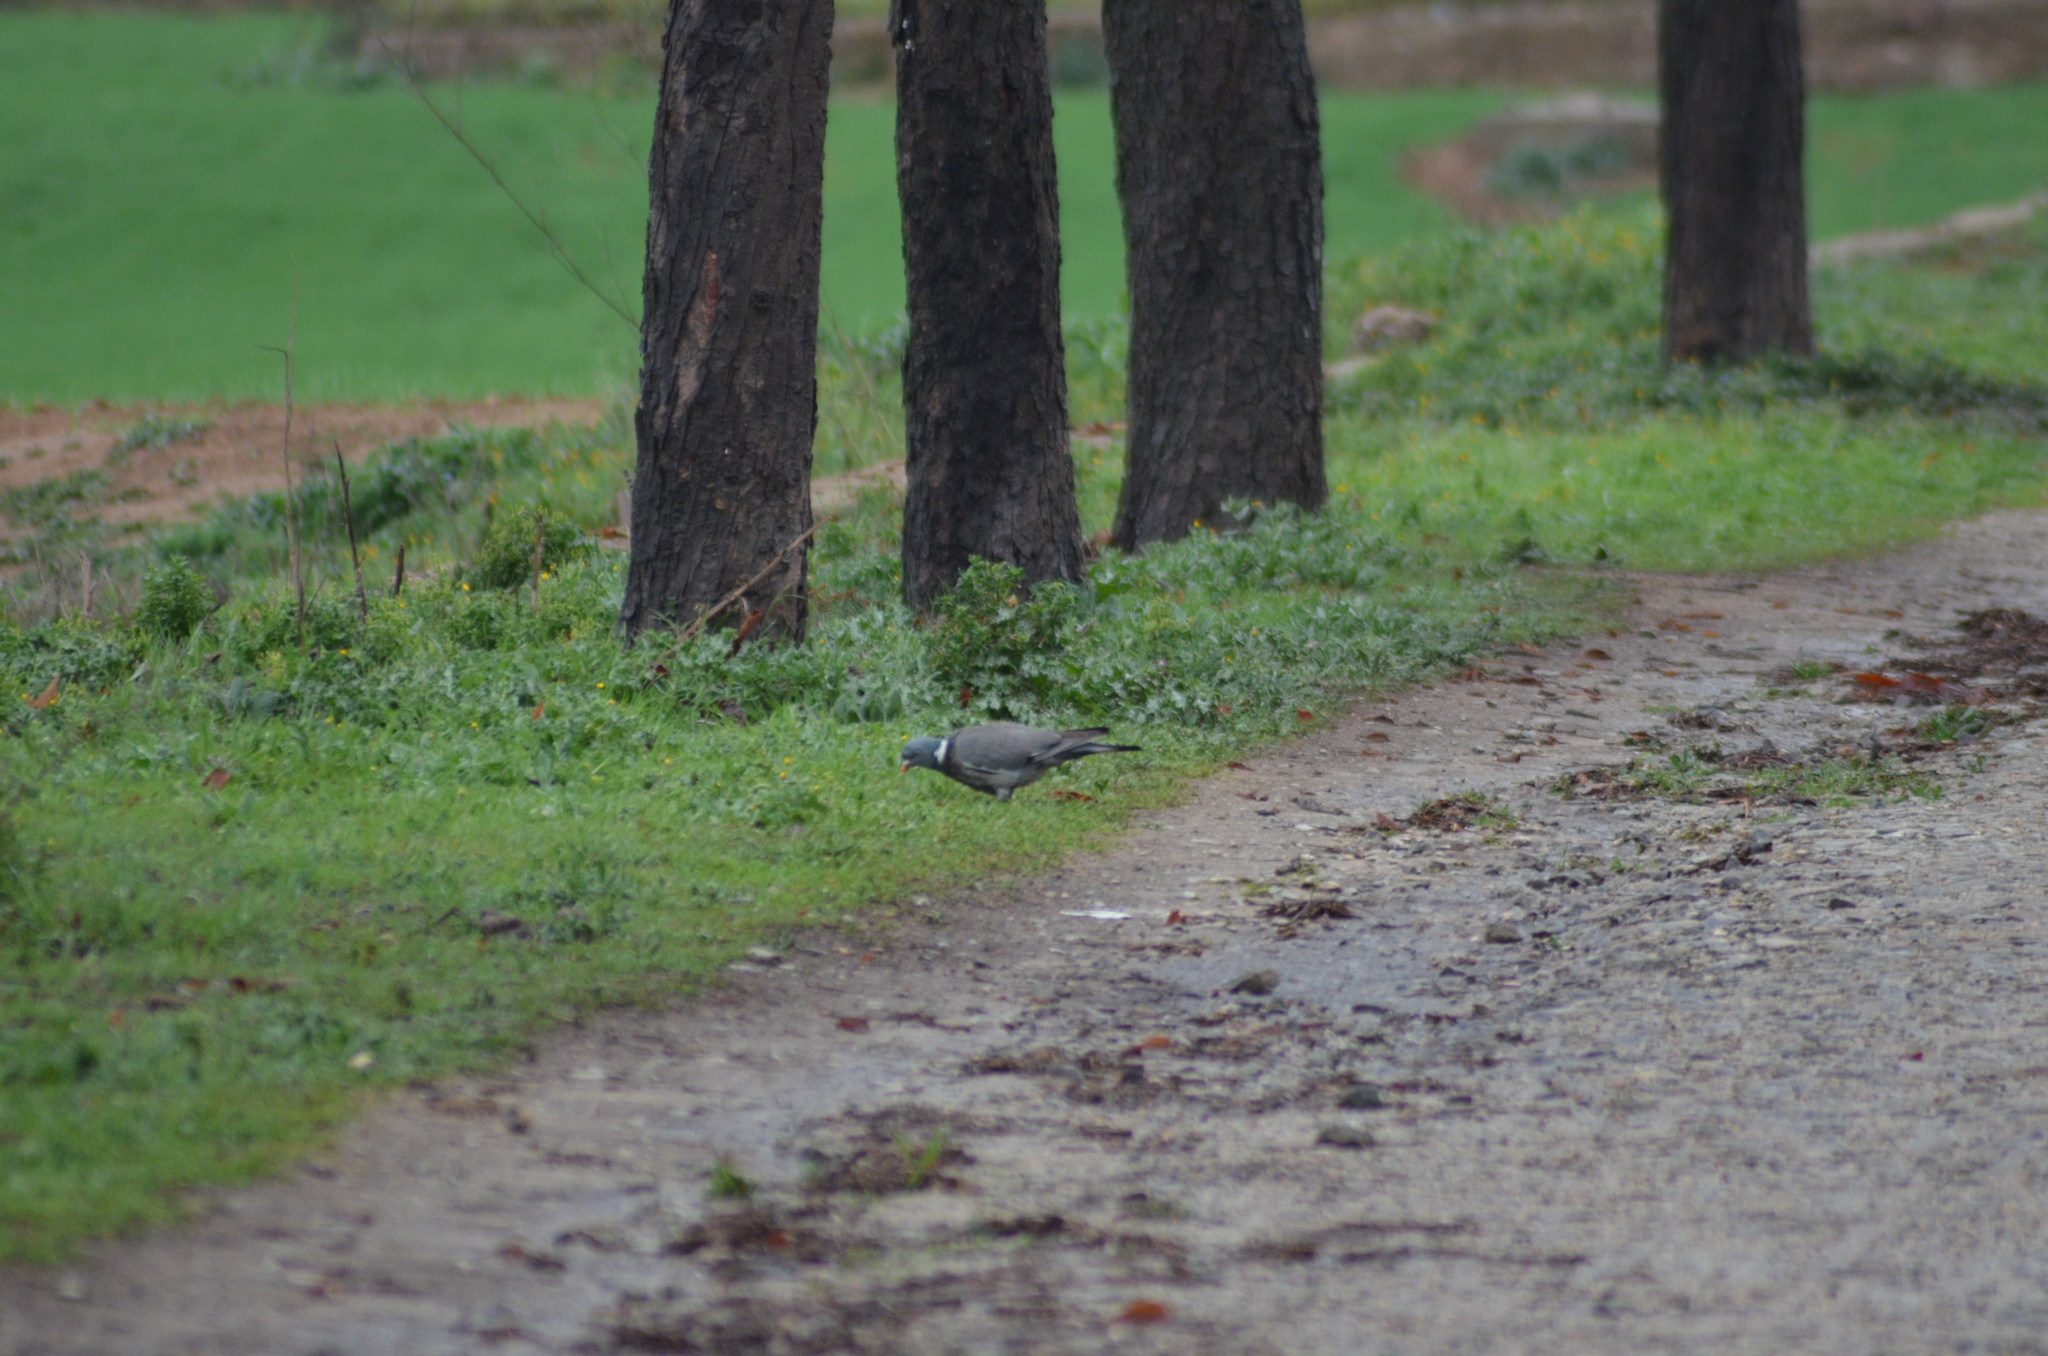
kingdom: Animalia
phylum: Chordata
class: Aves
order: Columbiformes
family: Columbidae
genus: Columba
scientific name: Columba palumbus
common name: Common wood pigeon
